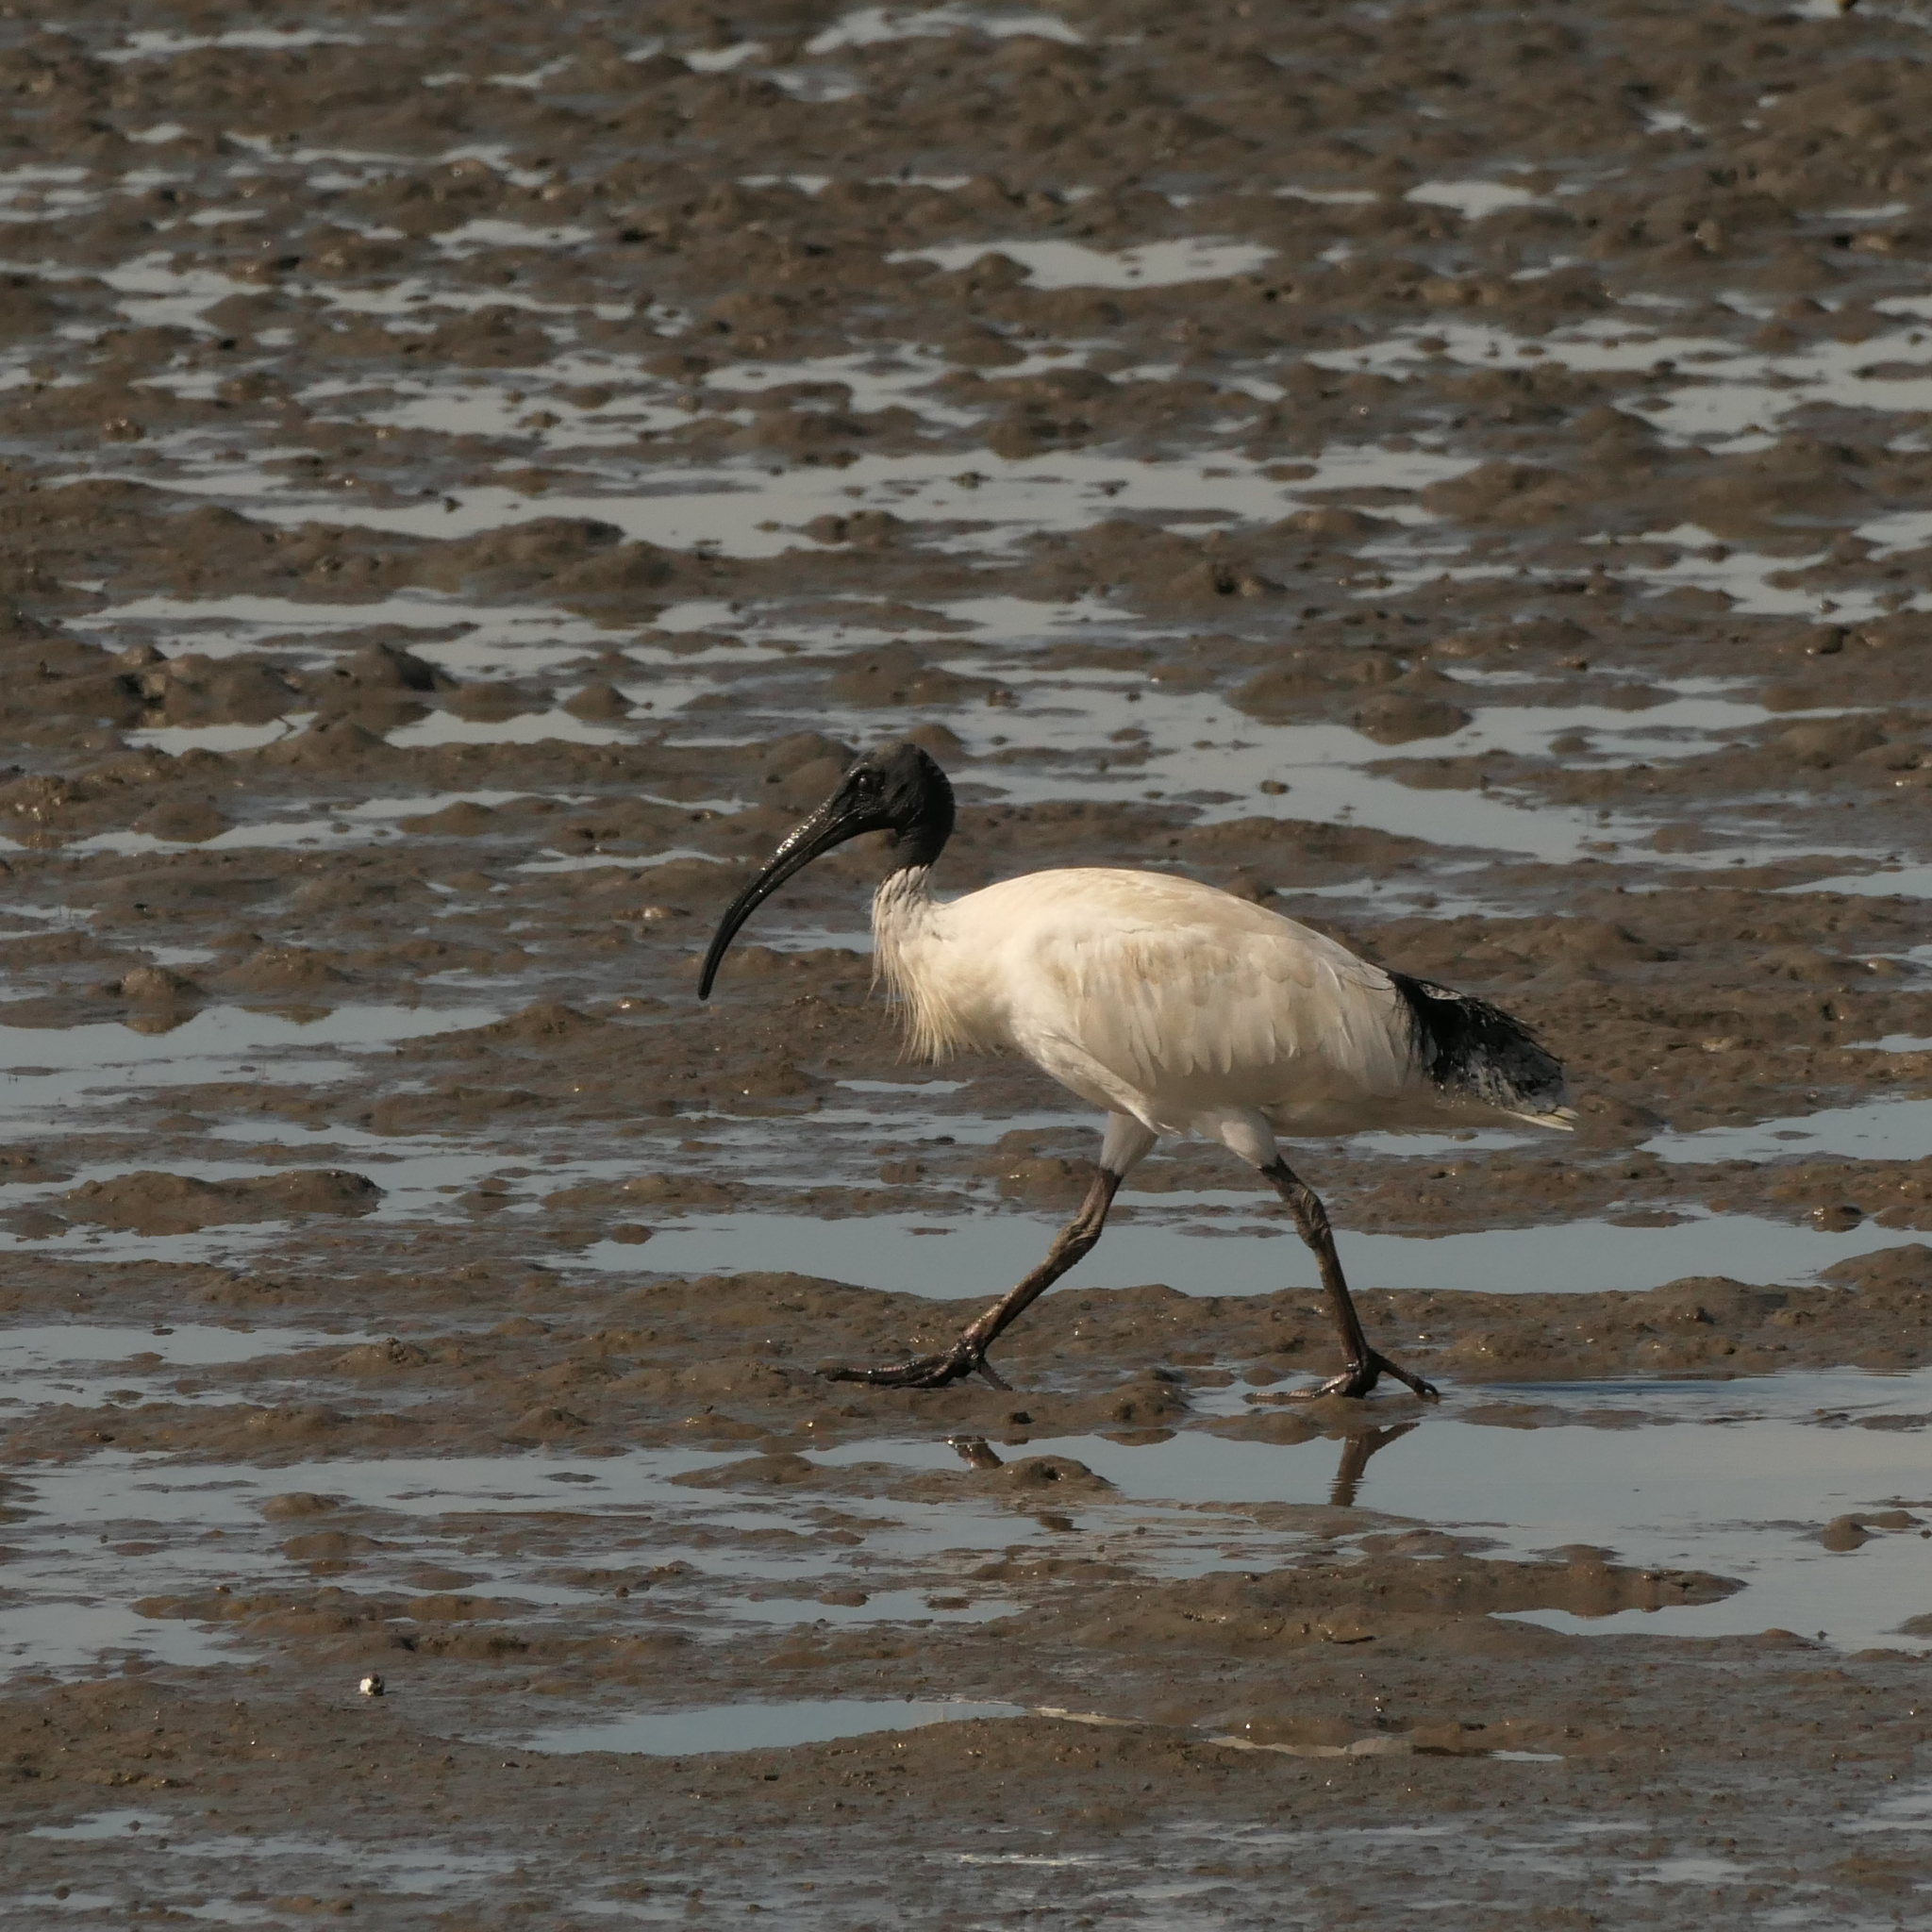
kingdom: Animalia
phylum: Chordata
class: Aves
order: Pelecaniformes
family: Threskiornithidae
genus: Threskiornis
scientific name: Threskiornis molucca
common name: Australian white ibis
